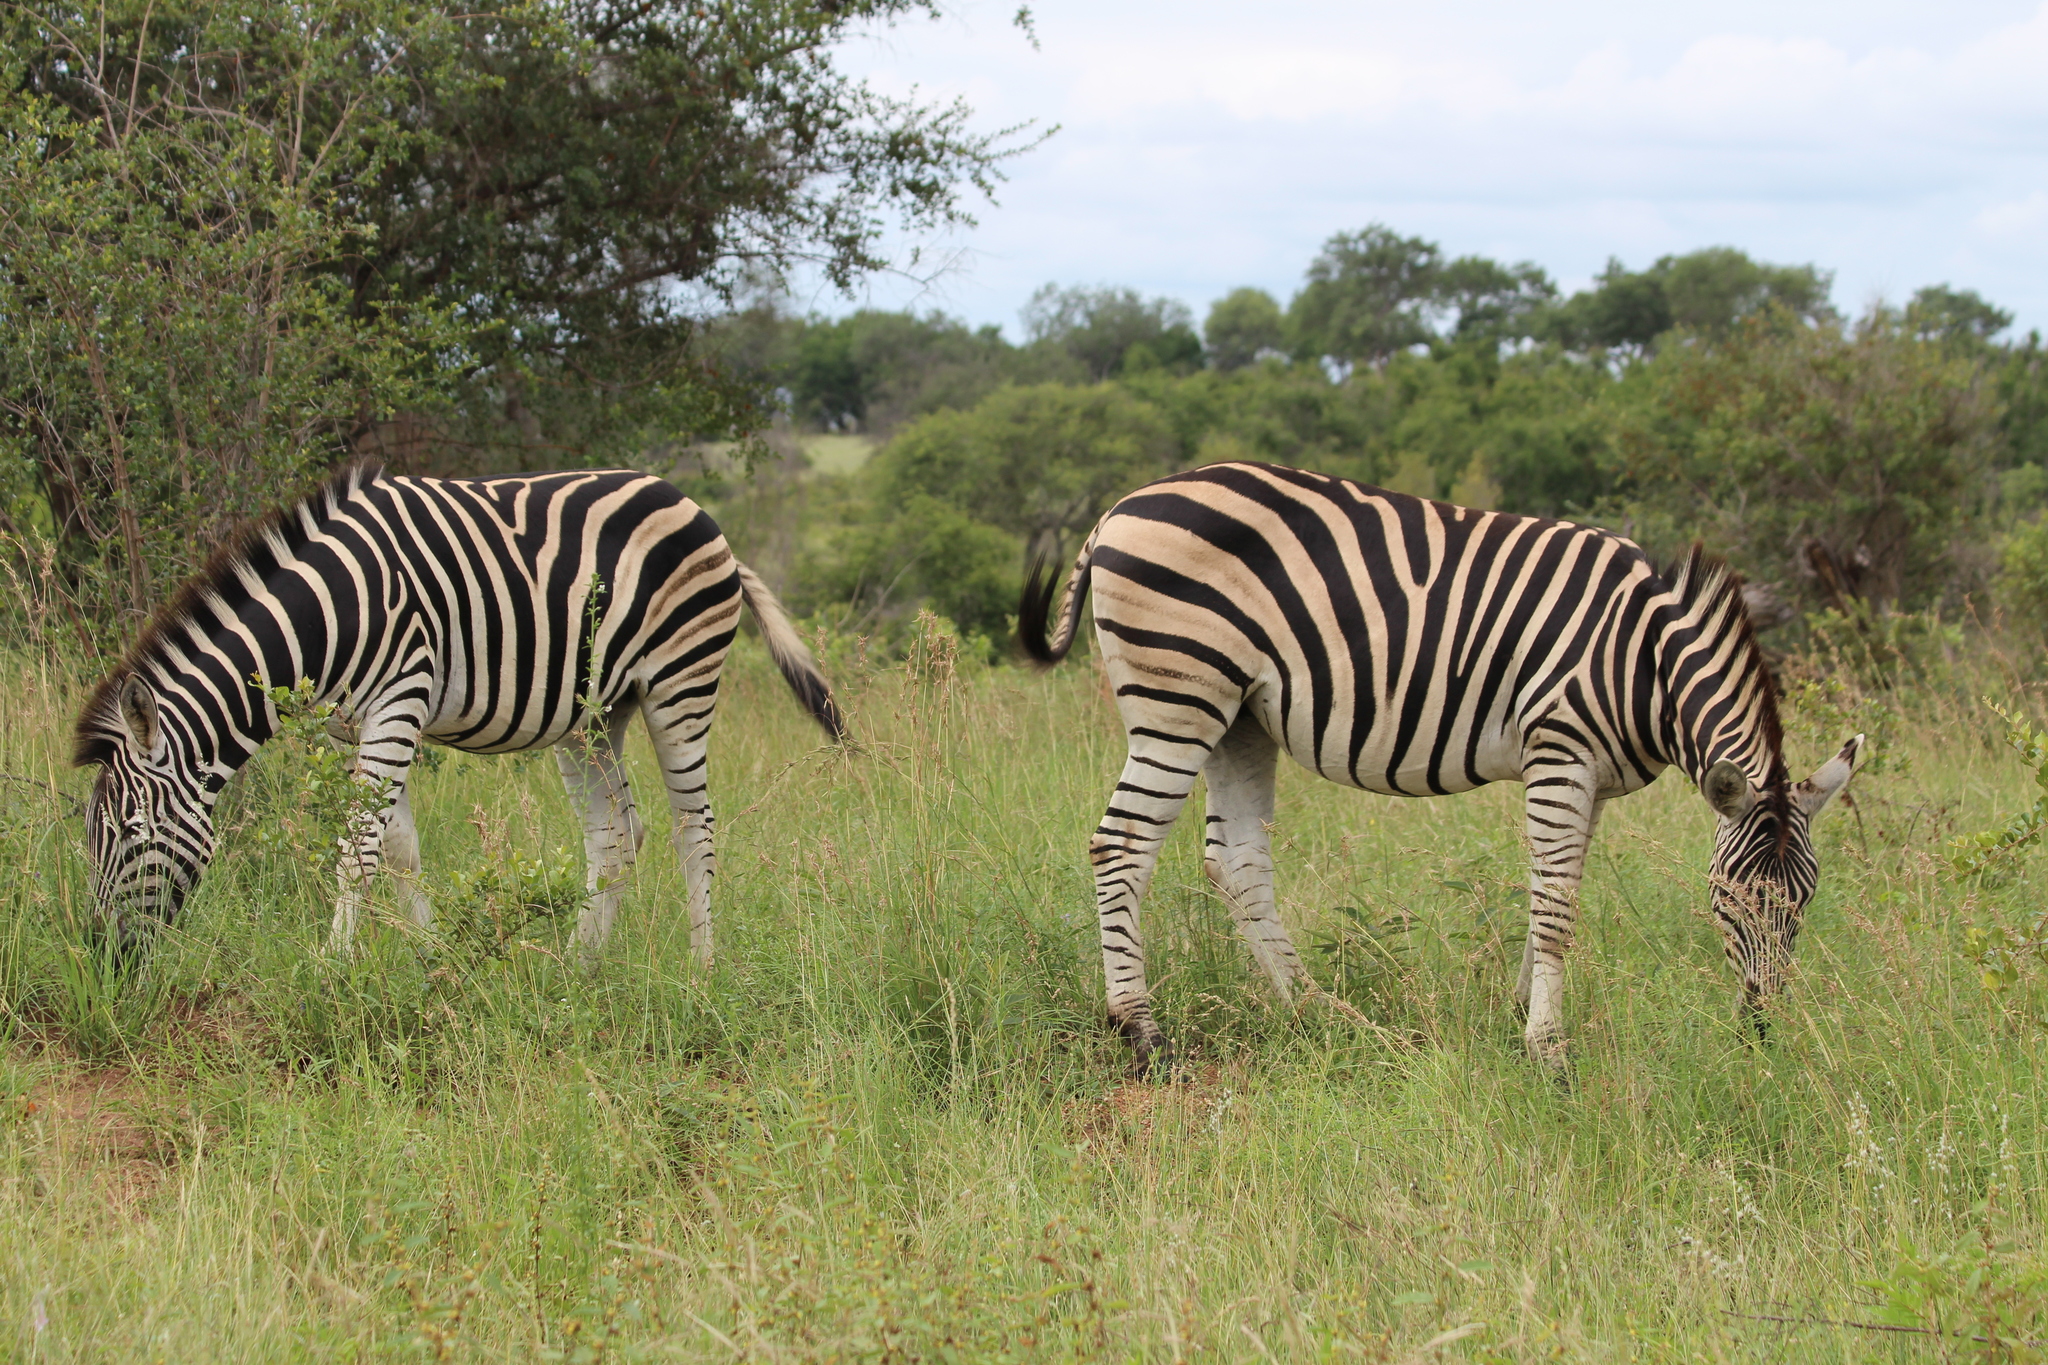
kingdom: Animalia
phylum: Chordata
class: Mammalia
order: Perissodactyla
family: Equidae
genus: Equus
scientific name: Equus quagga
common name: Plains zebra
